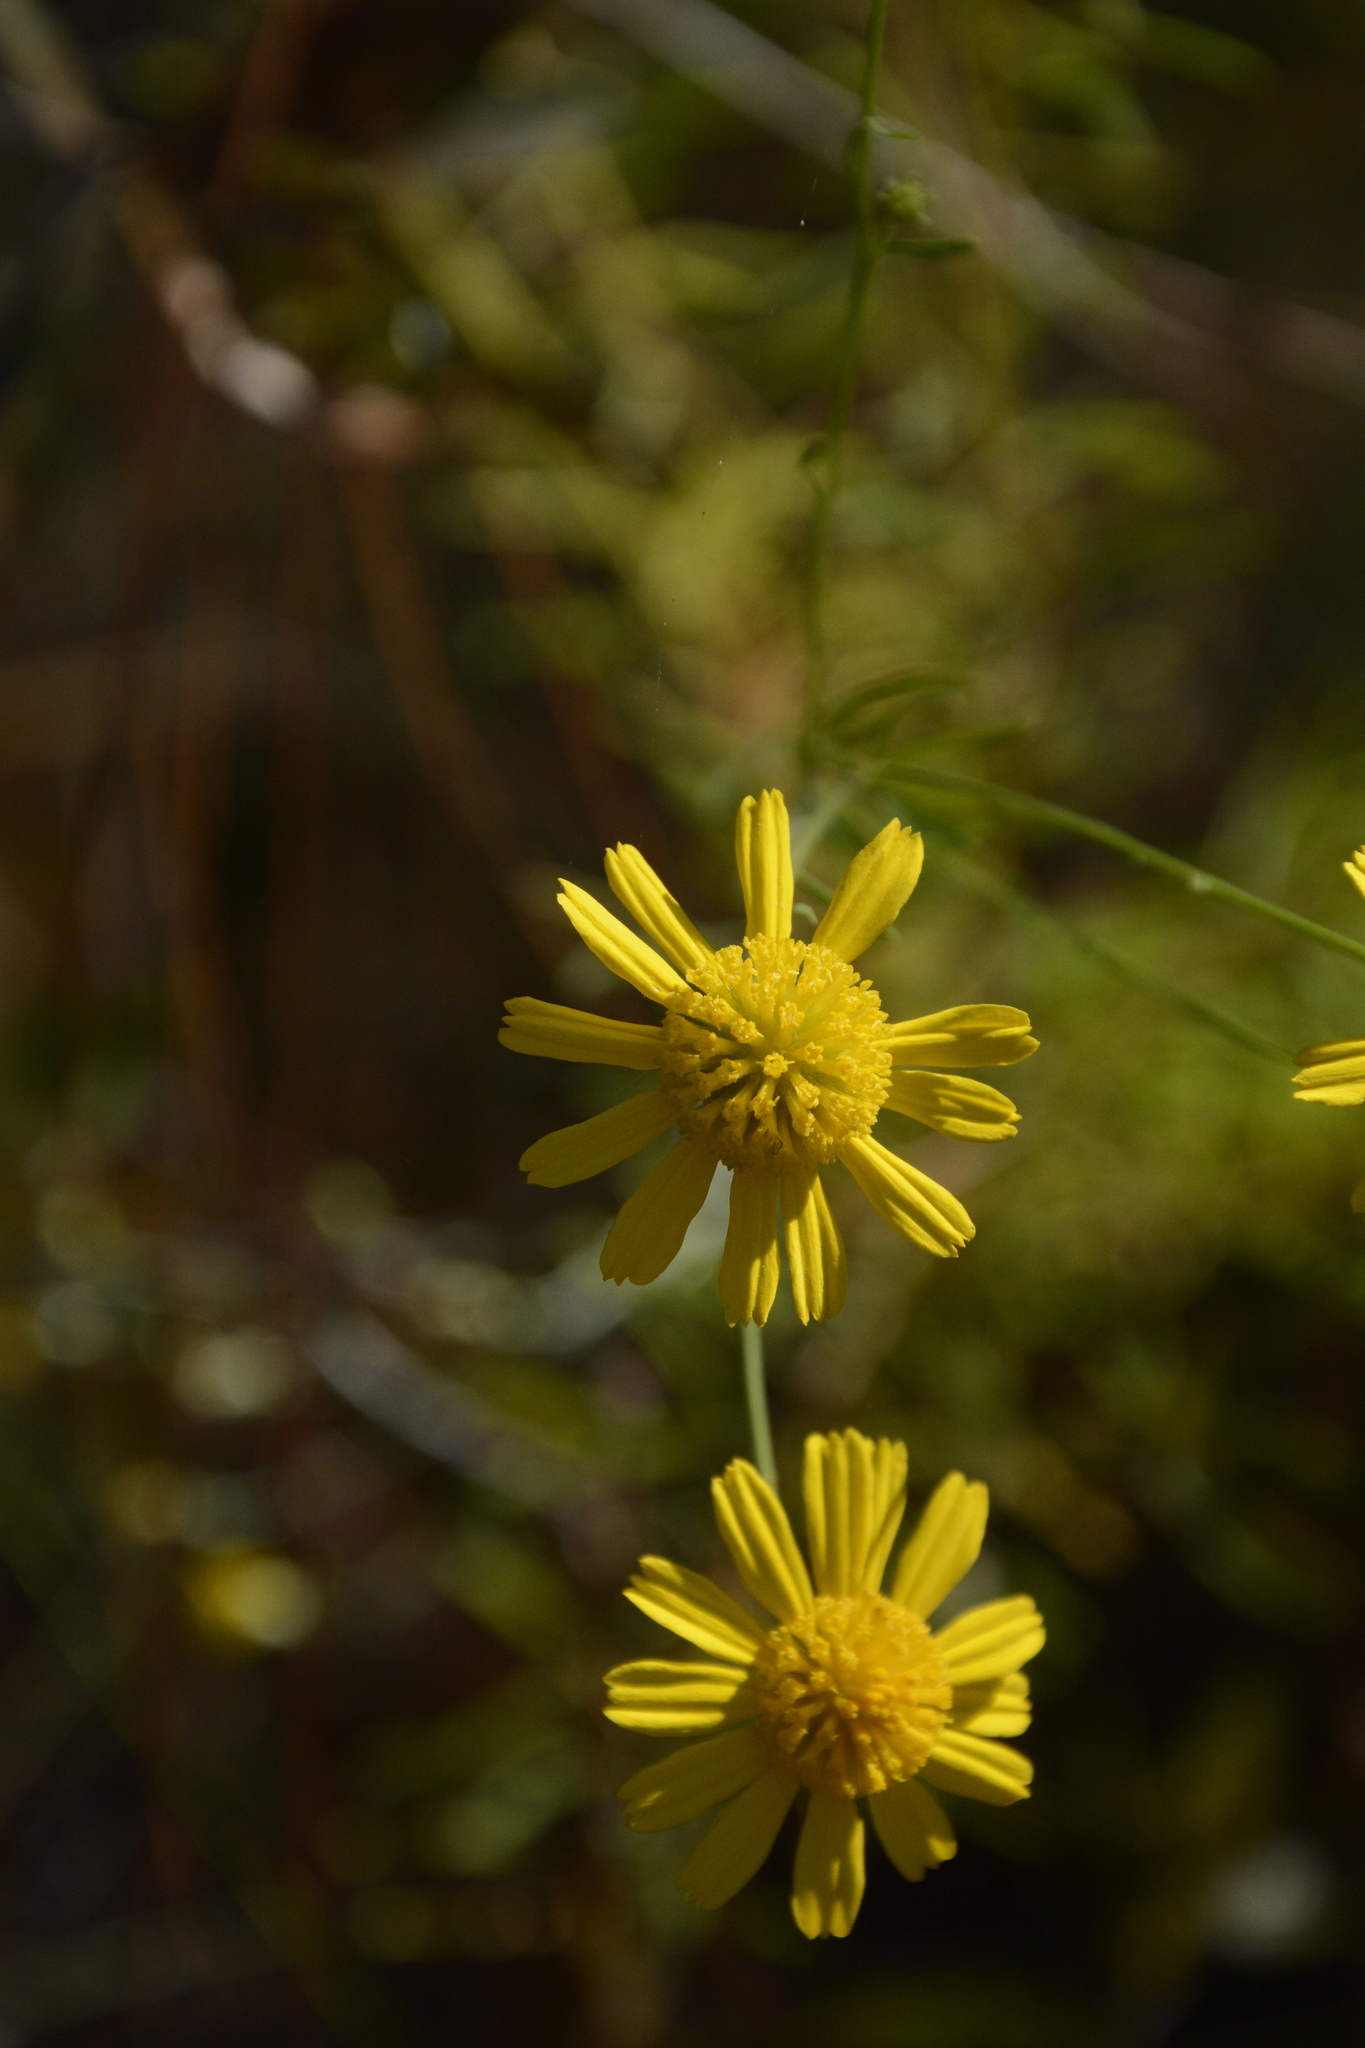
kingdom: Plantae
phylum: Tracheophyta
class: Magnoliopsida
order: Asterales
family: Asteraceae
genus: Balduina
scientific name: Balduina angustifolia
